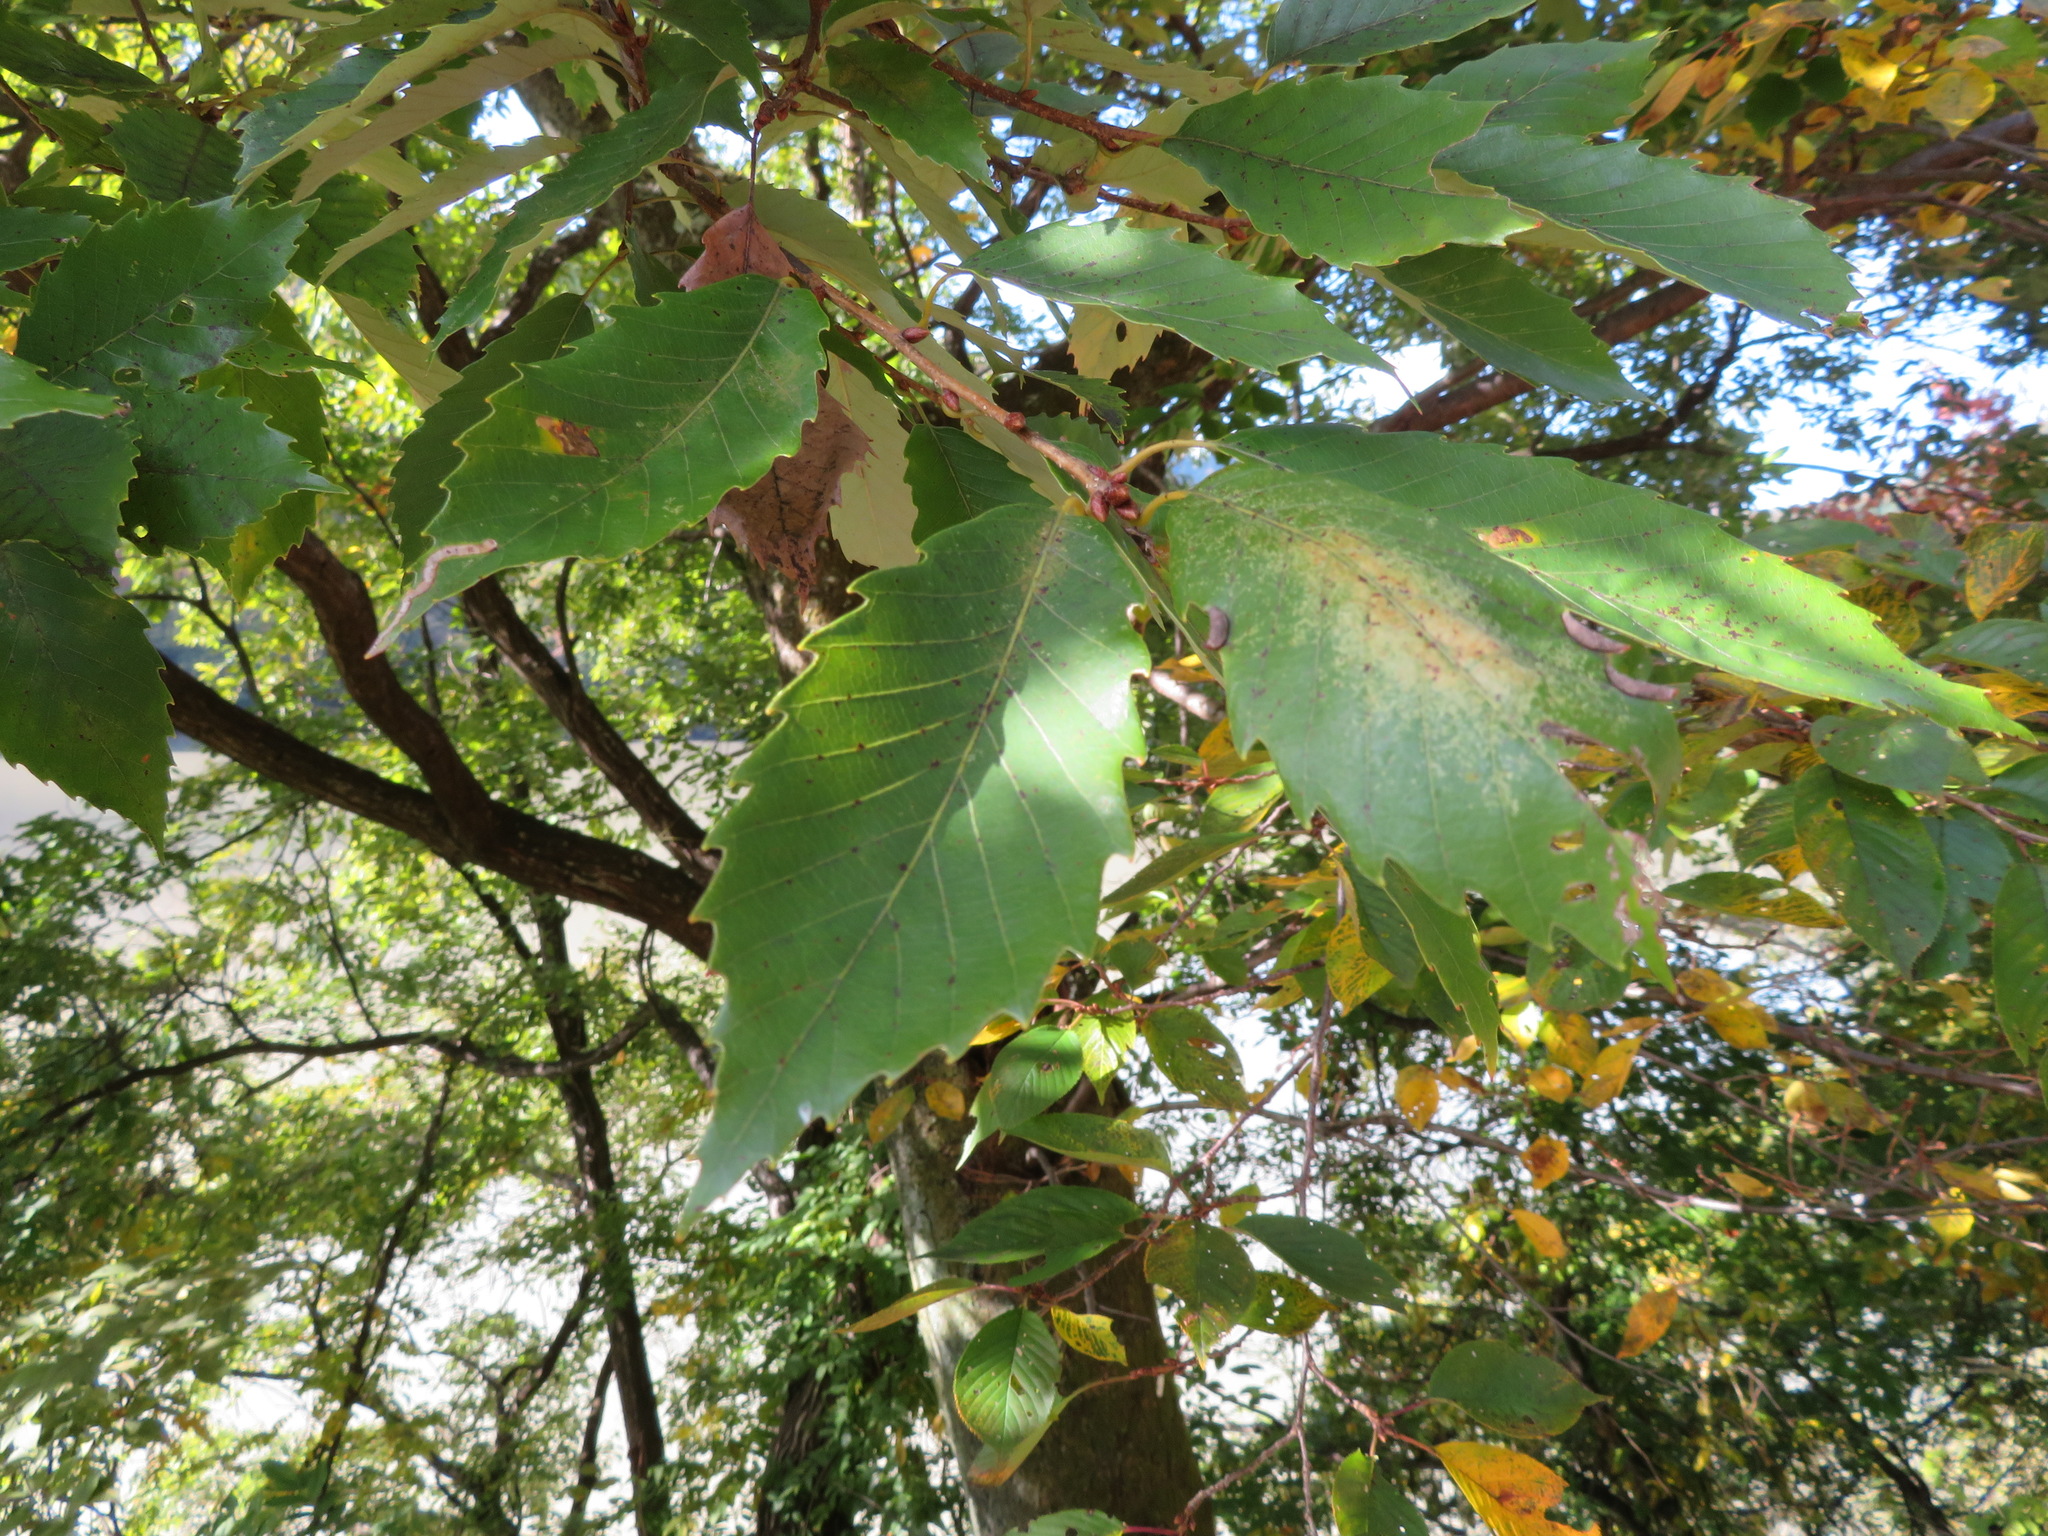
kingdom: Plantae
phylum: Tracheophyta
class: Magnoliopsida
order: Fagales
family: Fagaceae
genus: Quercus
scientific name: Quercus serrata
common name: Bao li
